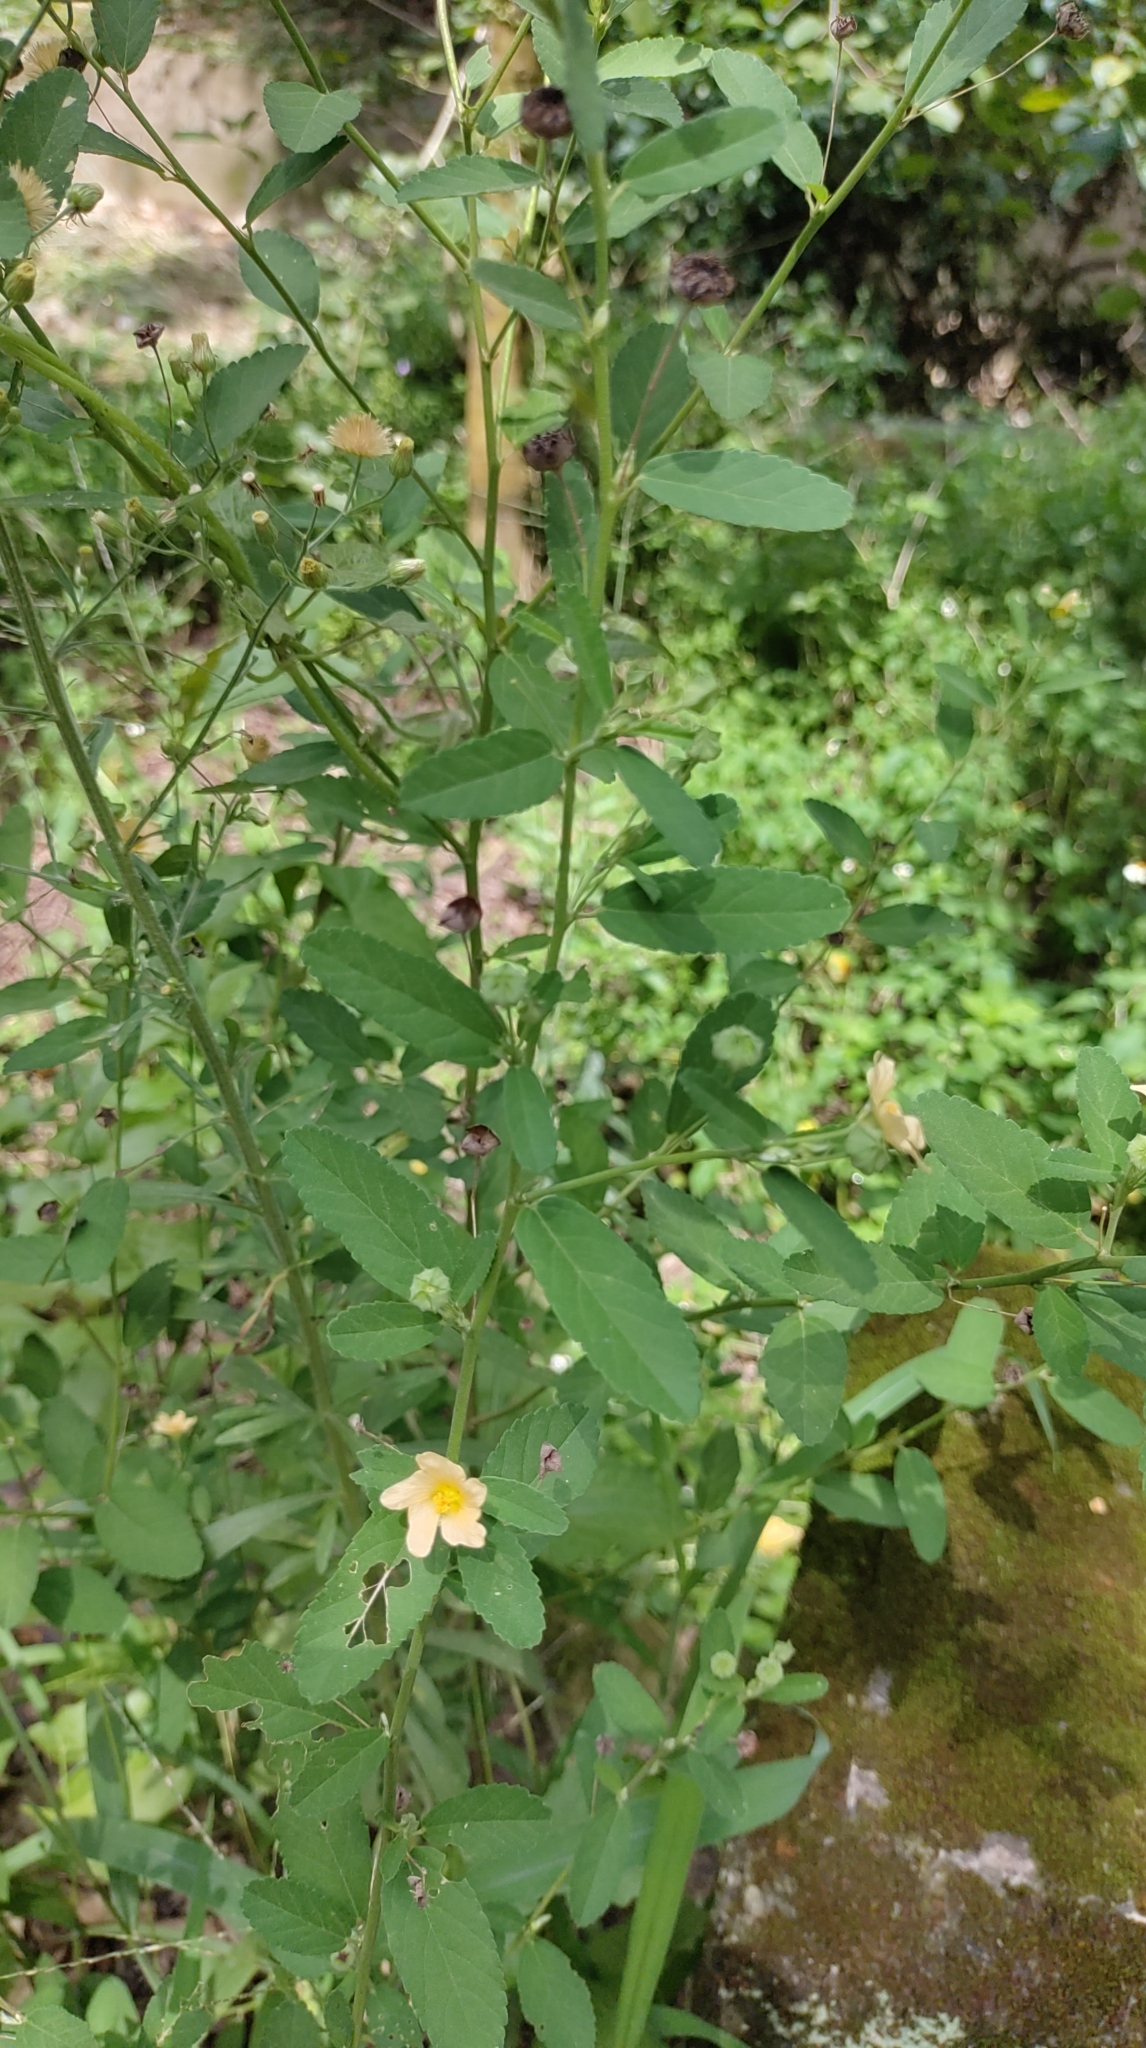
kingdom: Plantae
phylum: Tracheophyta
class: Magnoliopsida
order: Malvales
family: Malvaceae
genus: Sida
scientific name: Sida rhombifolia
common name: Queensland-hemp
